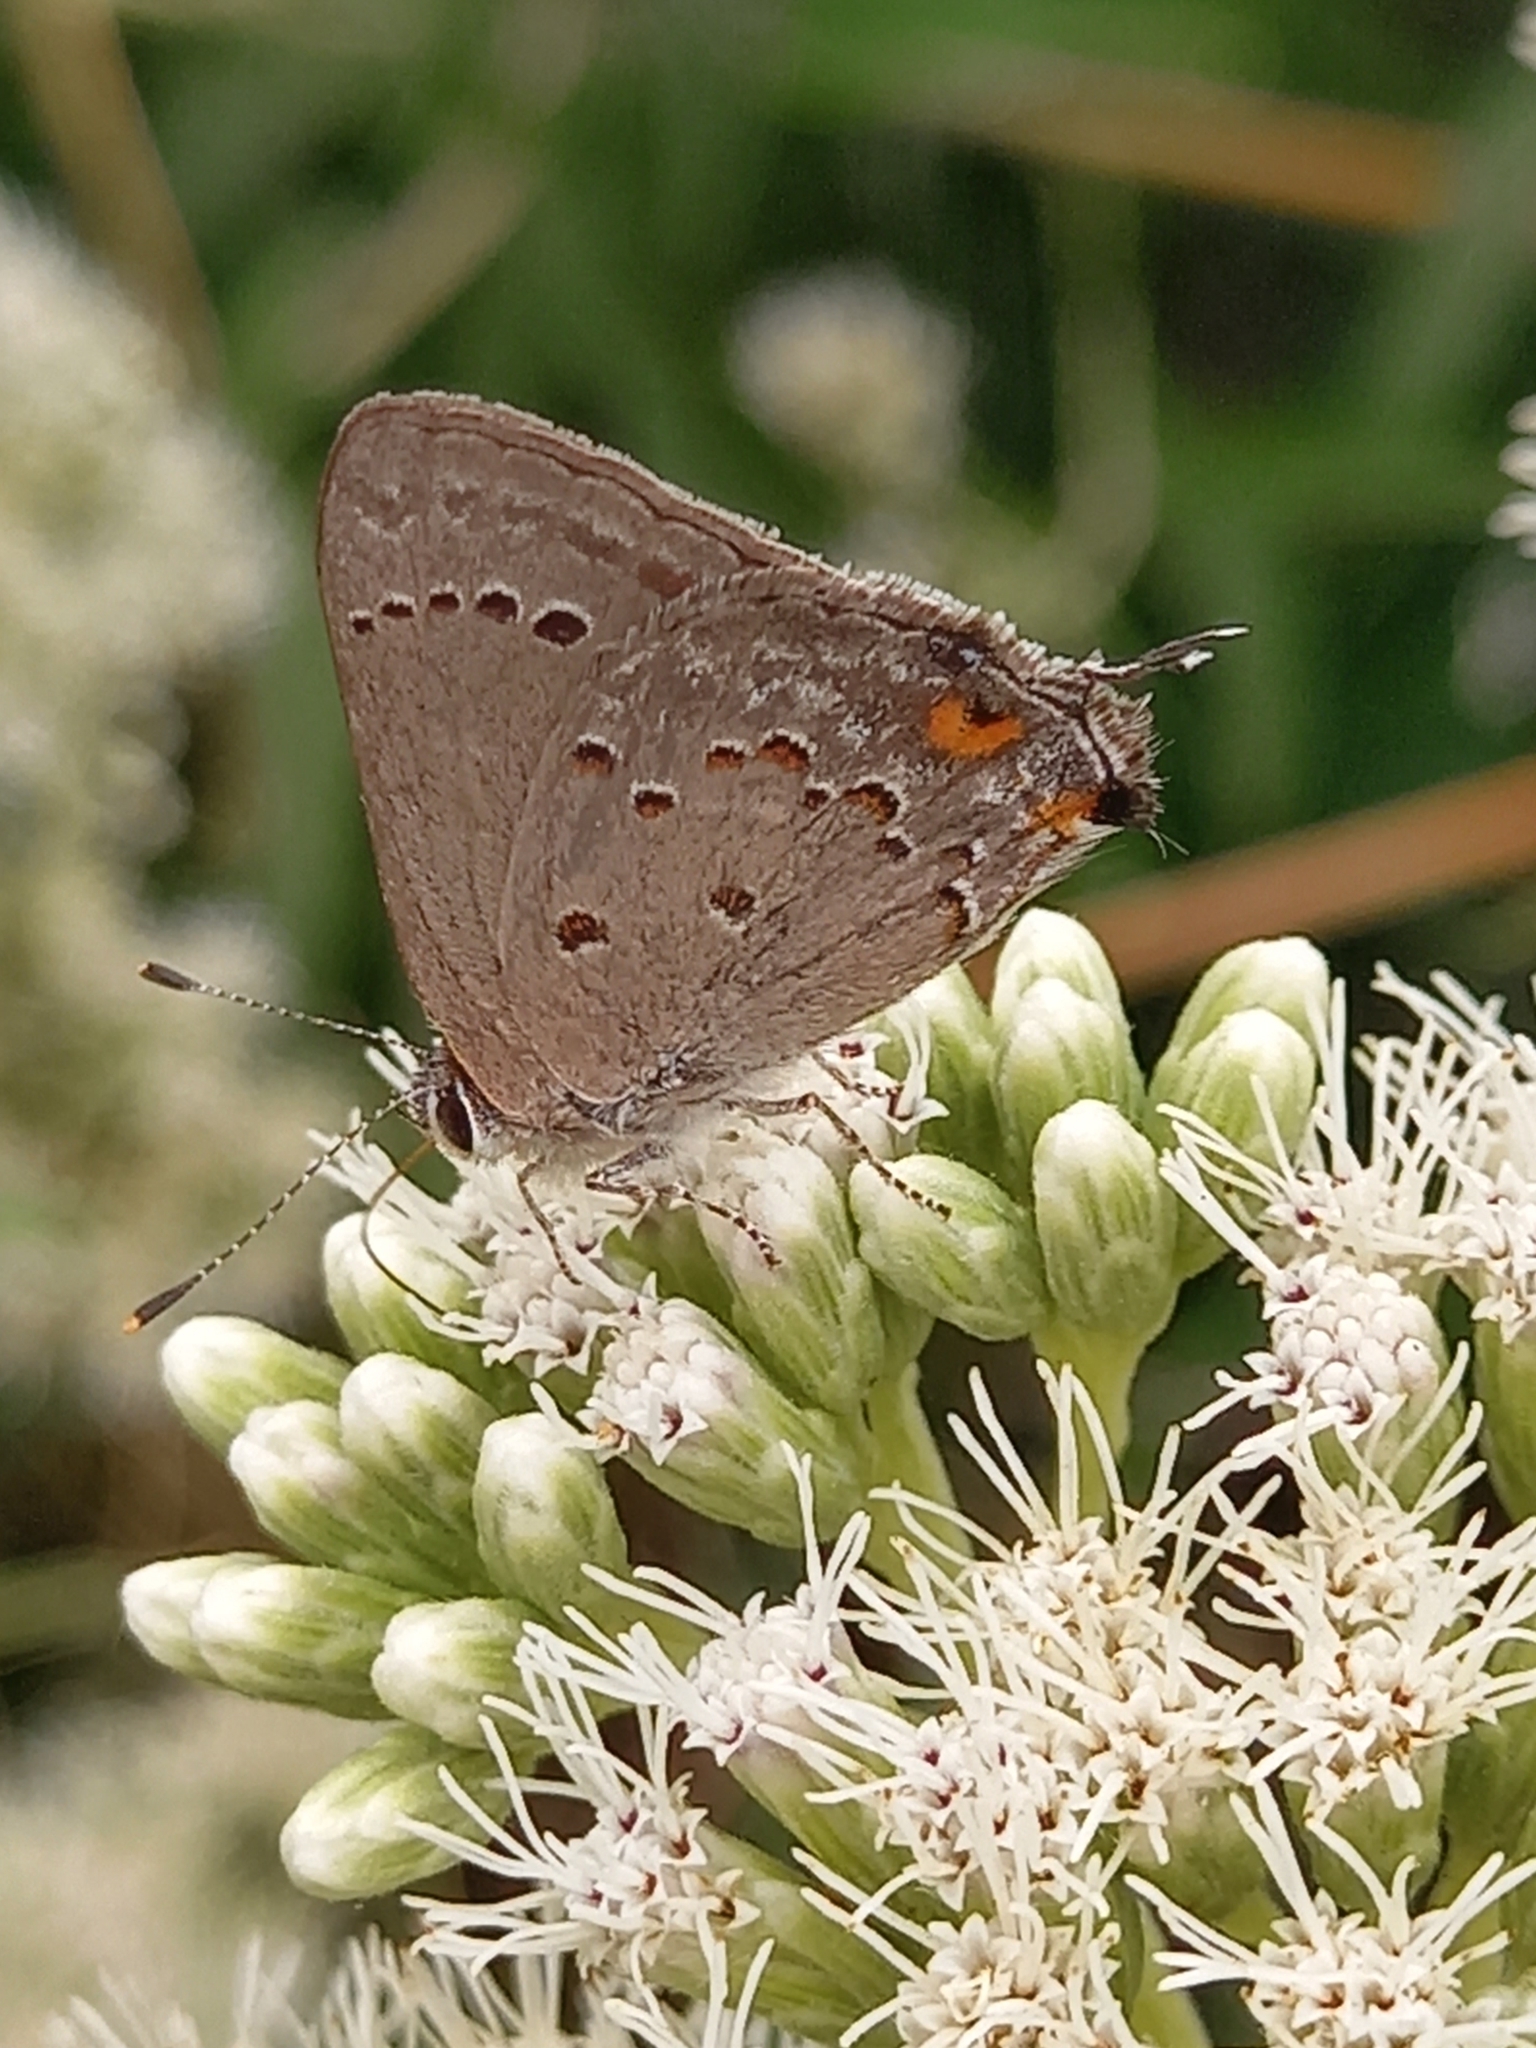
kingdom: Animalia
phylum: Arthropoda
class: Insecta
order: Lepidoptera
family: Lycaenidae
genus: Strymon
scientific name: Strymon eurytulus
